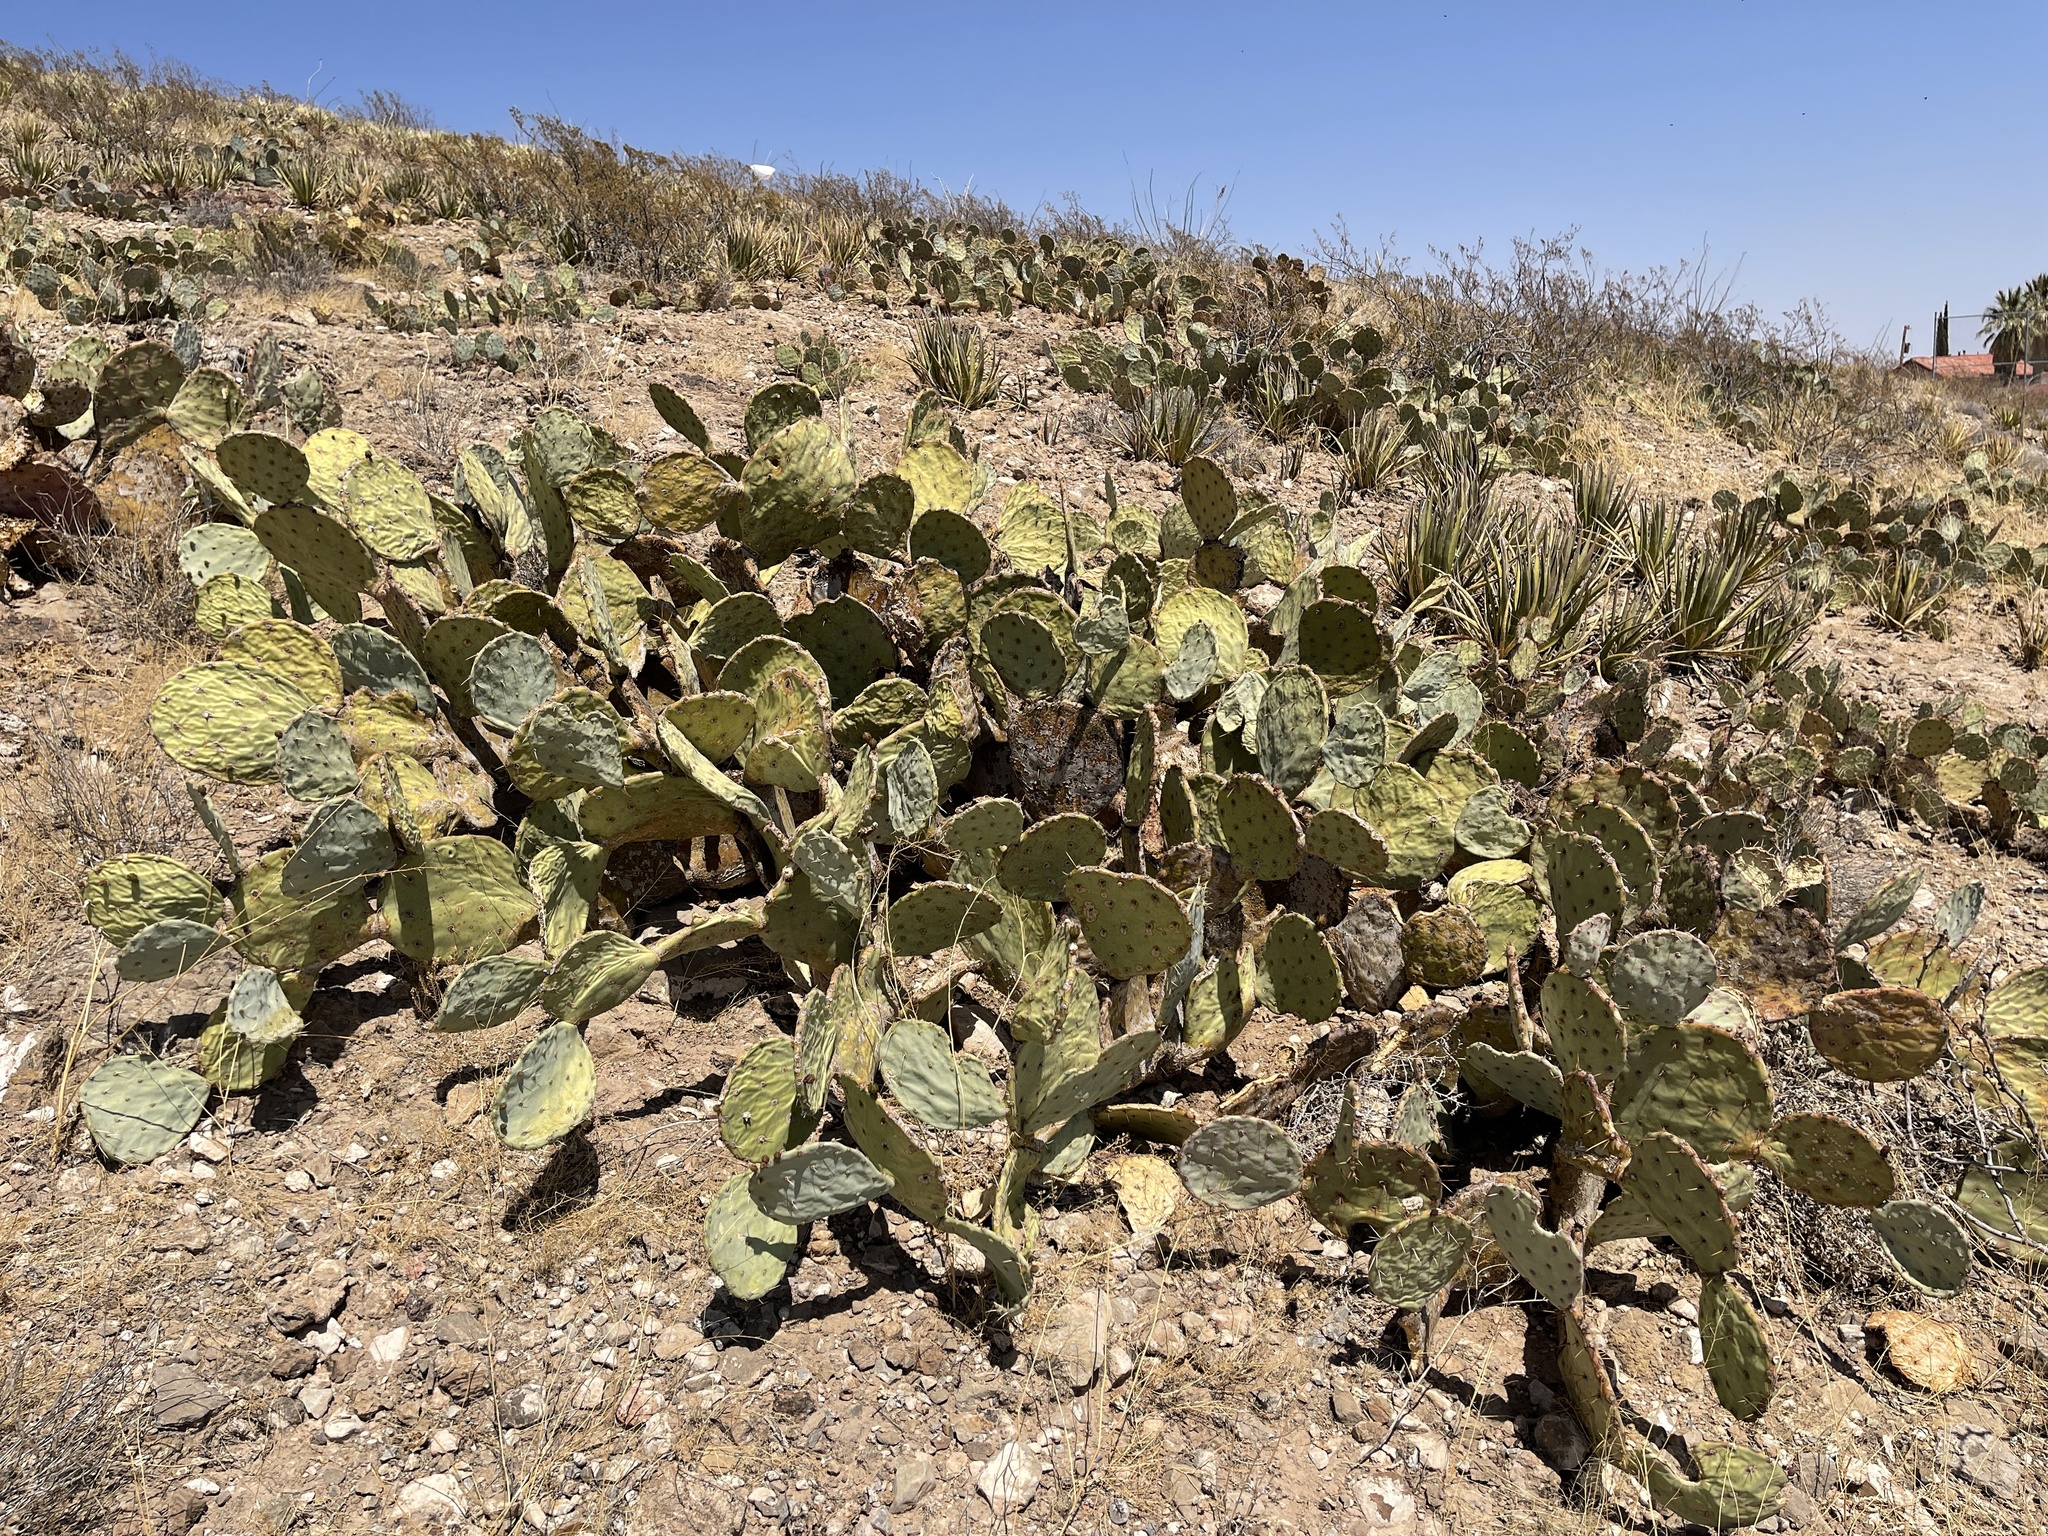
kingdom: Plantae
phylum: Tracheophyta
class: Magnoliopsida
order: Caryophyllales
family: Cactaceae
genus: Opuntia
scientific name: Opuntia engelmannii
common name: Cactus-apple
